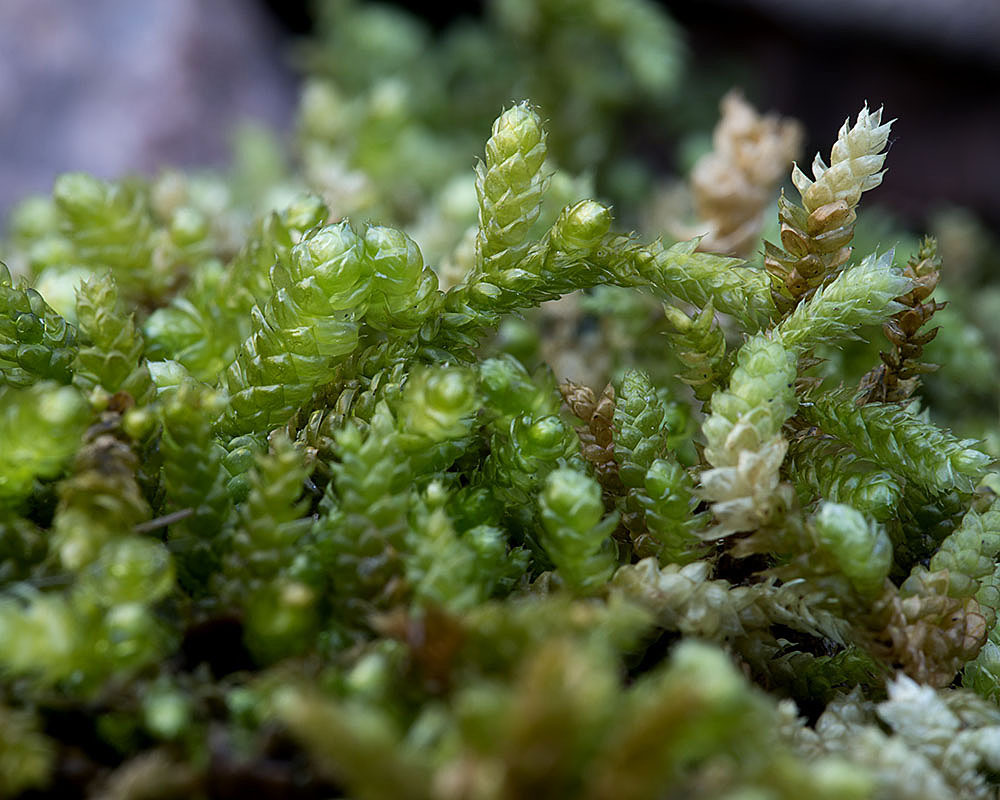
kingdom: Plantae
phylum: Bryophyta
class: Bryopsida
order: Hypnales
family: Brachytheciaceae
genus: Bryoandersonia
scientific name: Bryoandersonia illecebra
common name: Spoon-leaved moss
